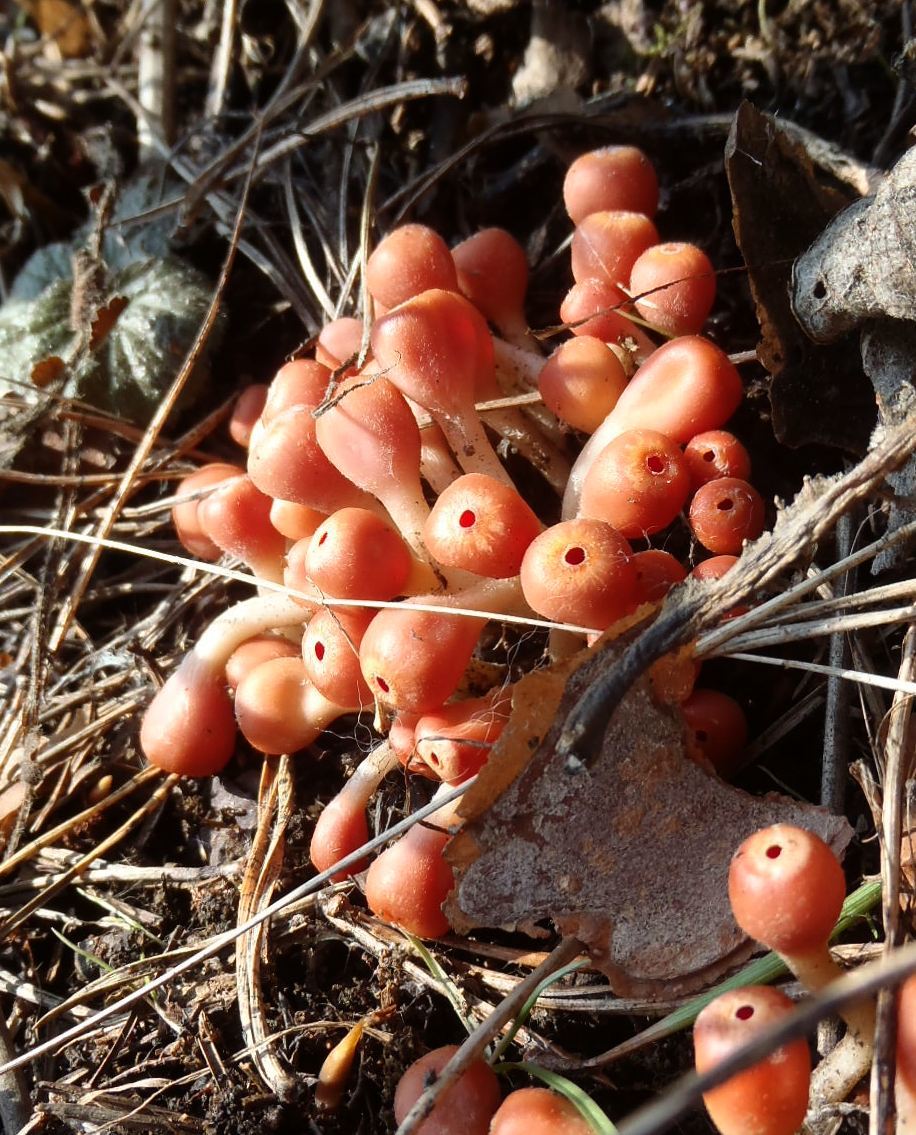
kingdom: Fungi
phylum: Ascomycota
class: Pezizomycetes
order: Pezizales
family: Sarcoscyphaceae
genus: Microstoma
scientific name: Microstoma protractum
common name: Rosy goblet
